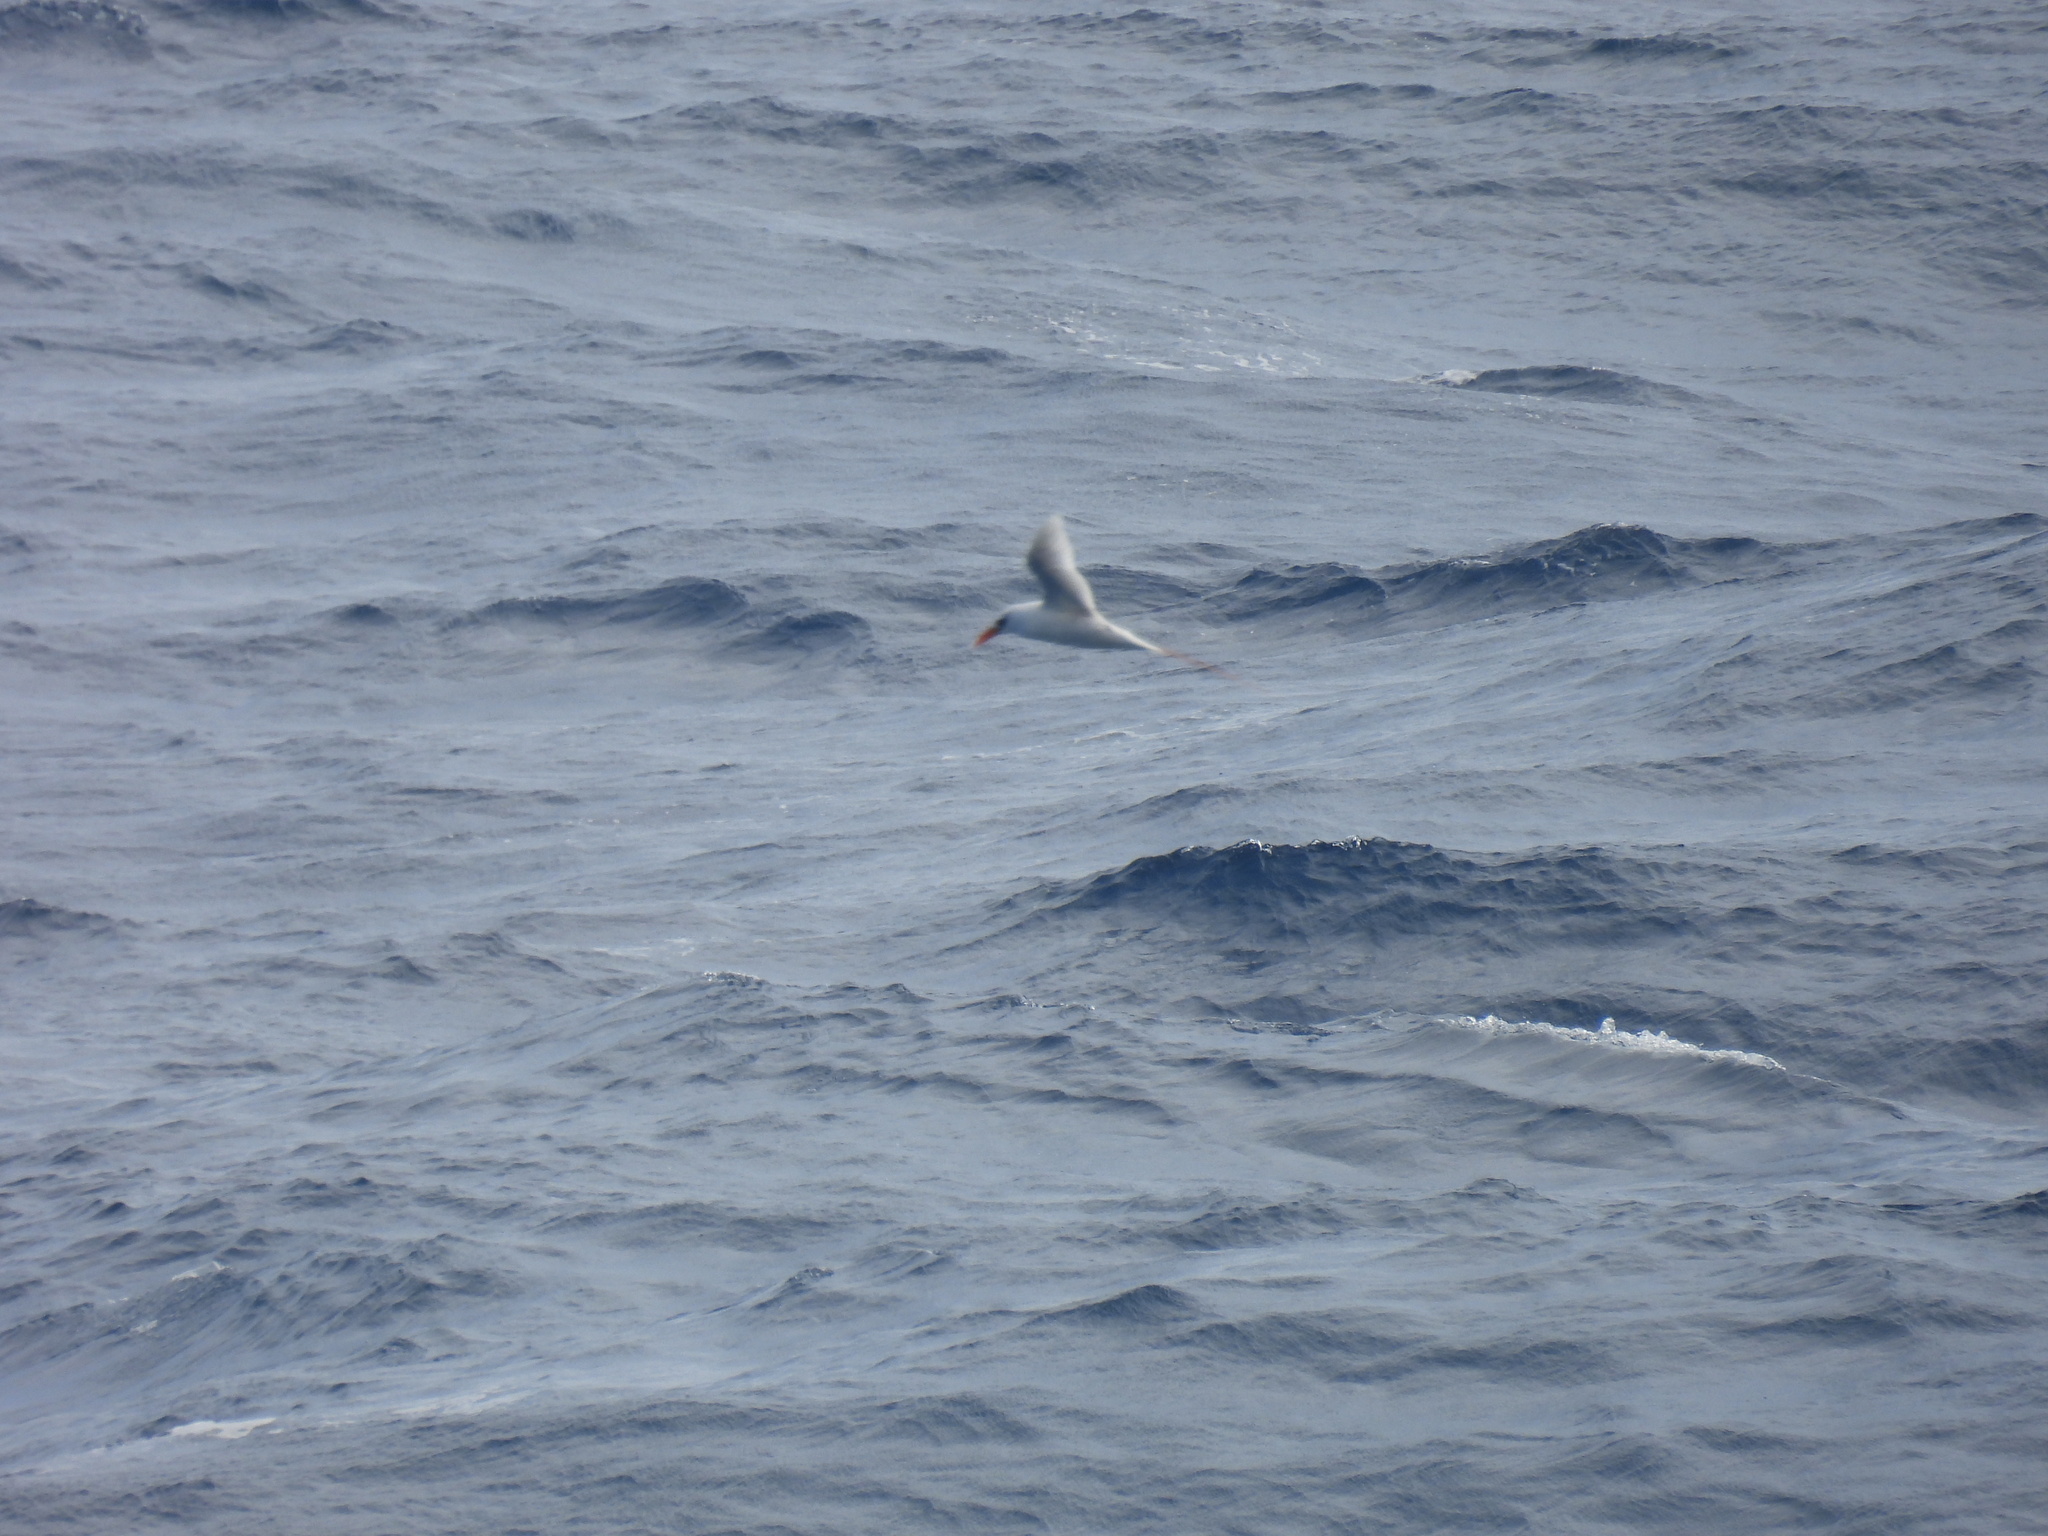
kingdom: Animalia
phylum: Chordata
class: Aves
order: Phaethontiformes
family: Phaethontidae
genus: Phaethon
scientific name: Phaethon rubricauda
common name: Red-tailed tropicbird
